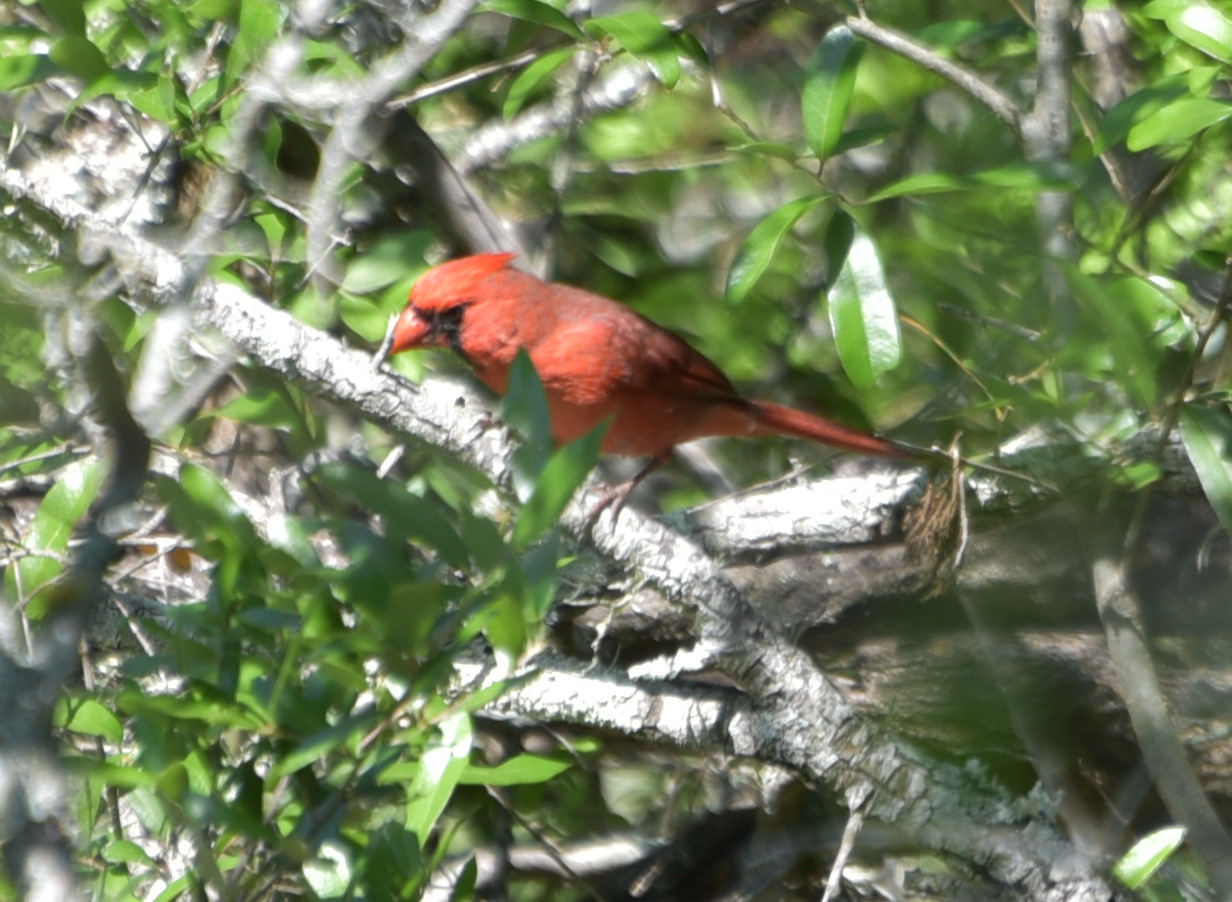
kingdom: Animalia
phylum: Chordata
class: Aves
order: Passeriformes
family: Cardinalidae
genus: Cardinalis
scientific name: Cardinalis cardinalis
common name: Northern cardinal
